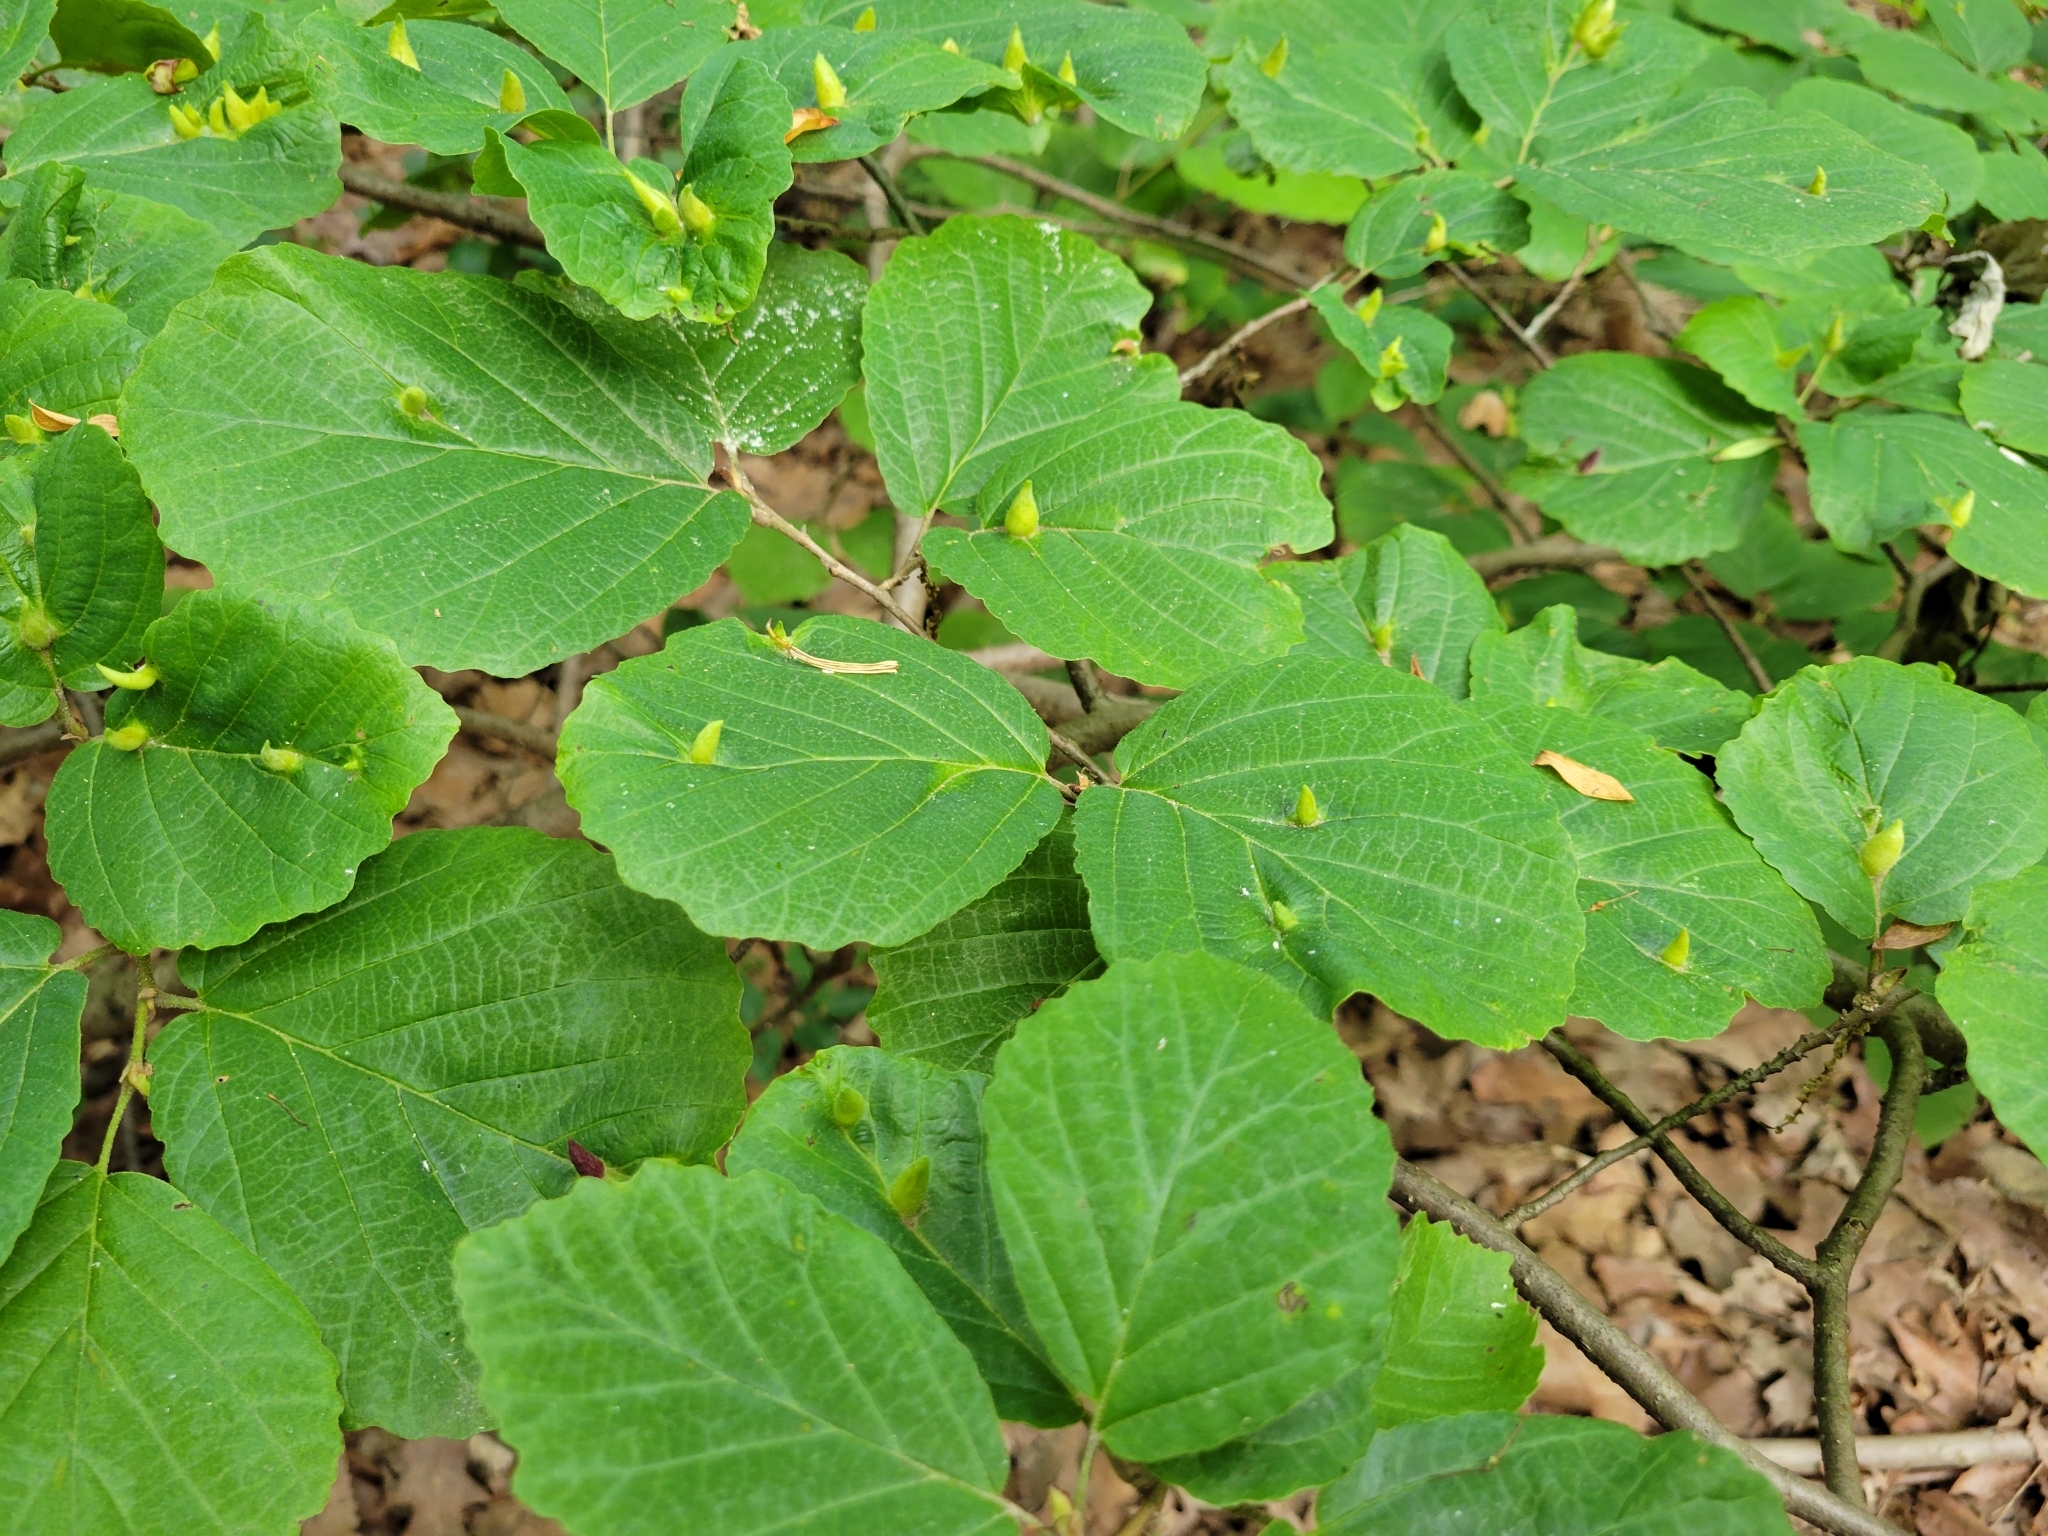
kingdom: Animalia
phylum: Arthropoda
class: Insecta
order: Hemiptera
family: Aphididae
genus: Hormaphis
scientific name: Hormaphis hamamelidis
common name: Witch-hazel cone gall aphid
